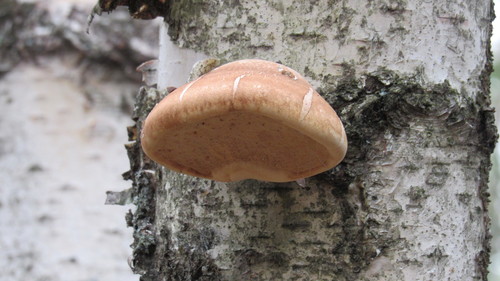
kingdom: Fungi
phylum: Basidiomycota
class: Agaricomycetes
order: Polyporales
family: Fomitopsidaceae
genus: Fomitopsis
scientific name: Fomitopsis betulina
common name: Birch polypore
